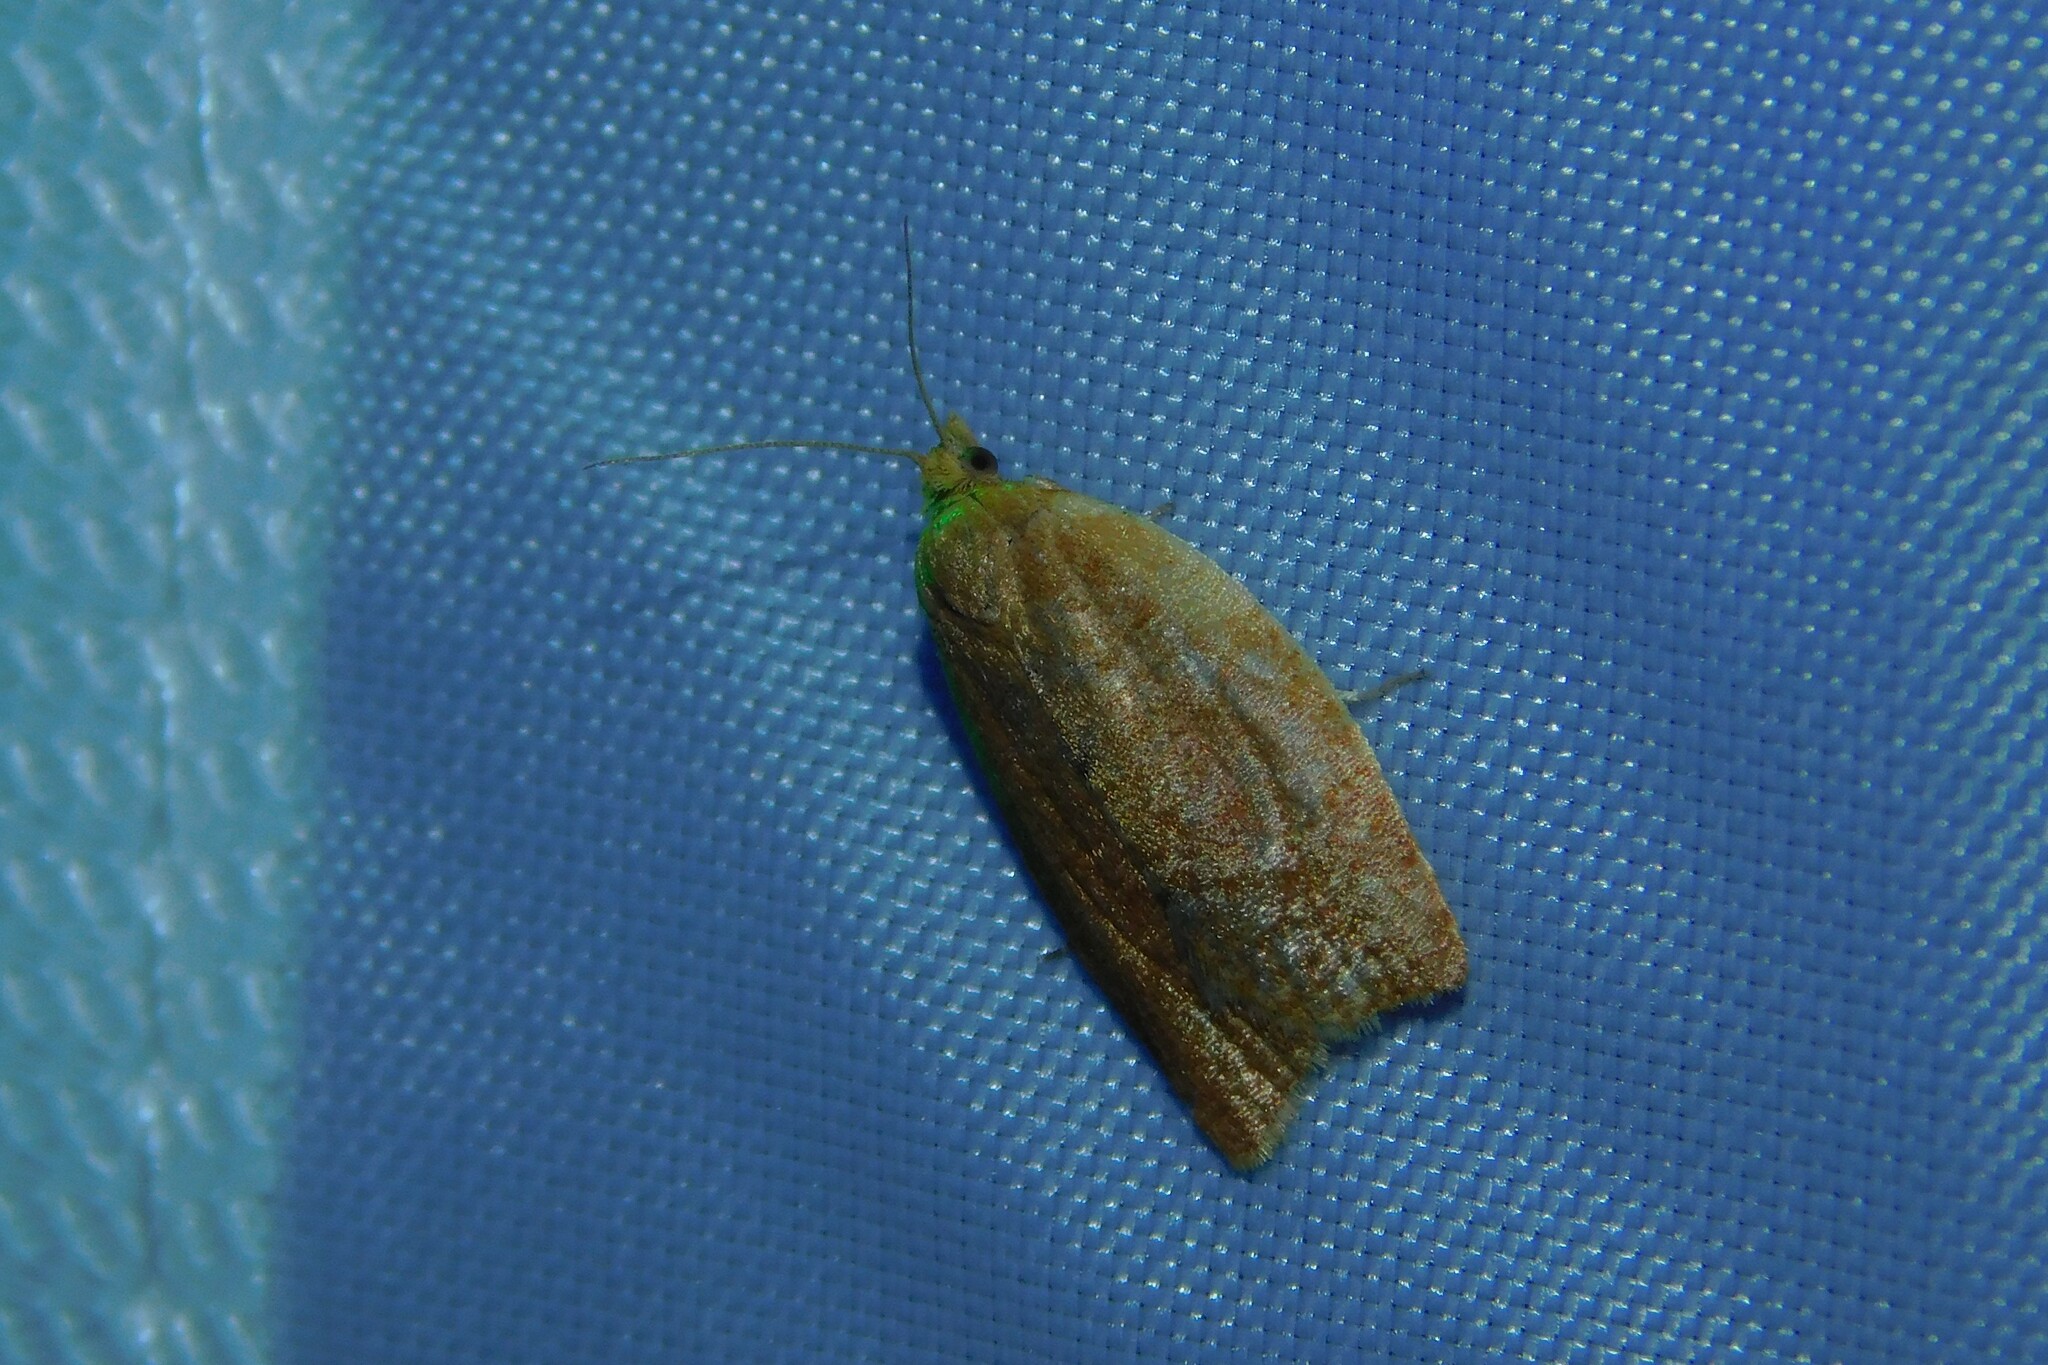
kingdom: Animalia
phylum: Arthropoda
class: Insecta
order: Lepidoptera
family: Tortricidae
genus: Clepsis
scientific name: Clepsis consimilana
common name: Privet tortrix
